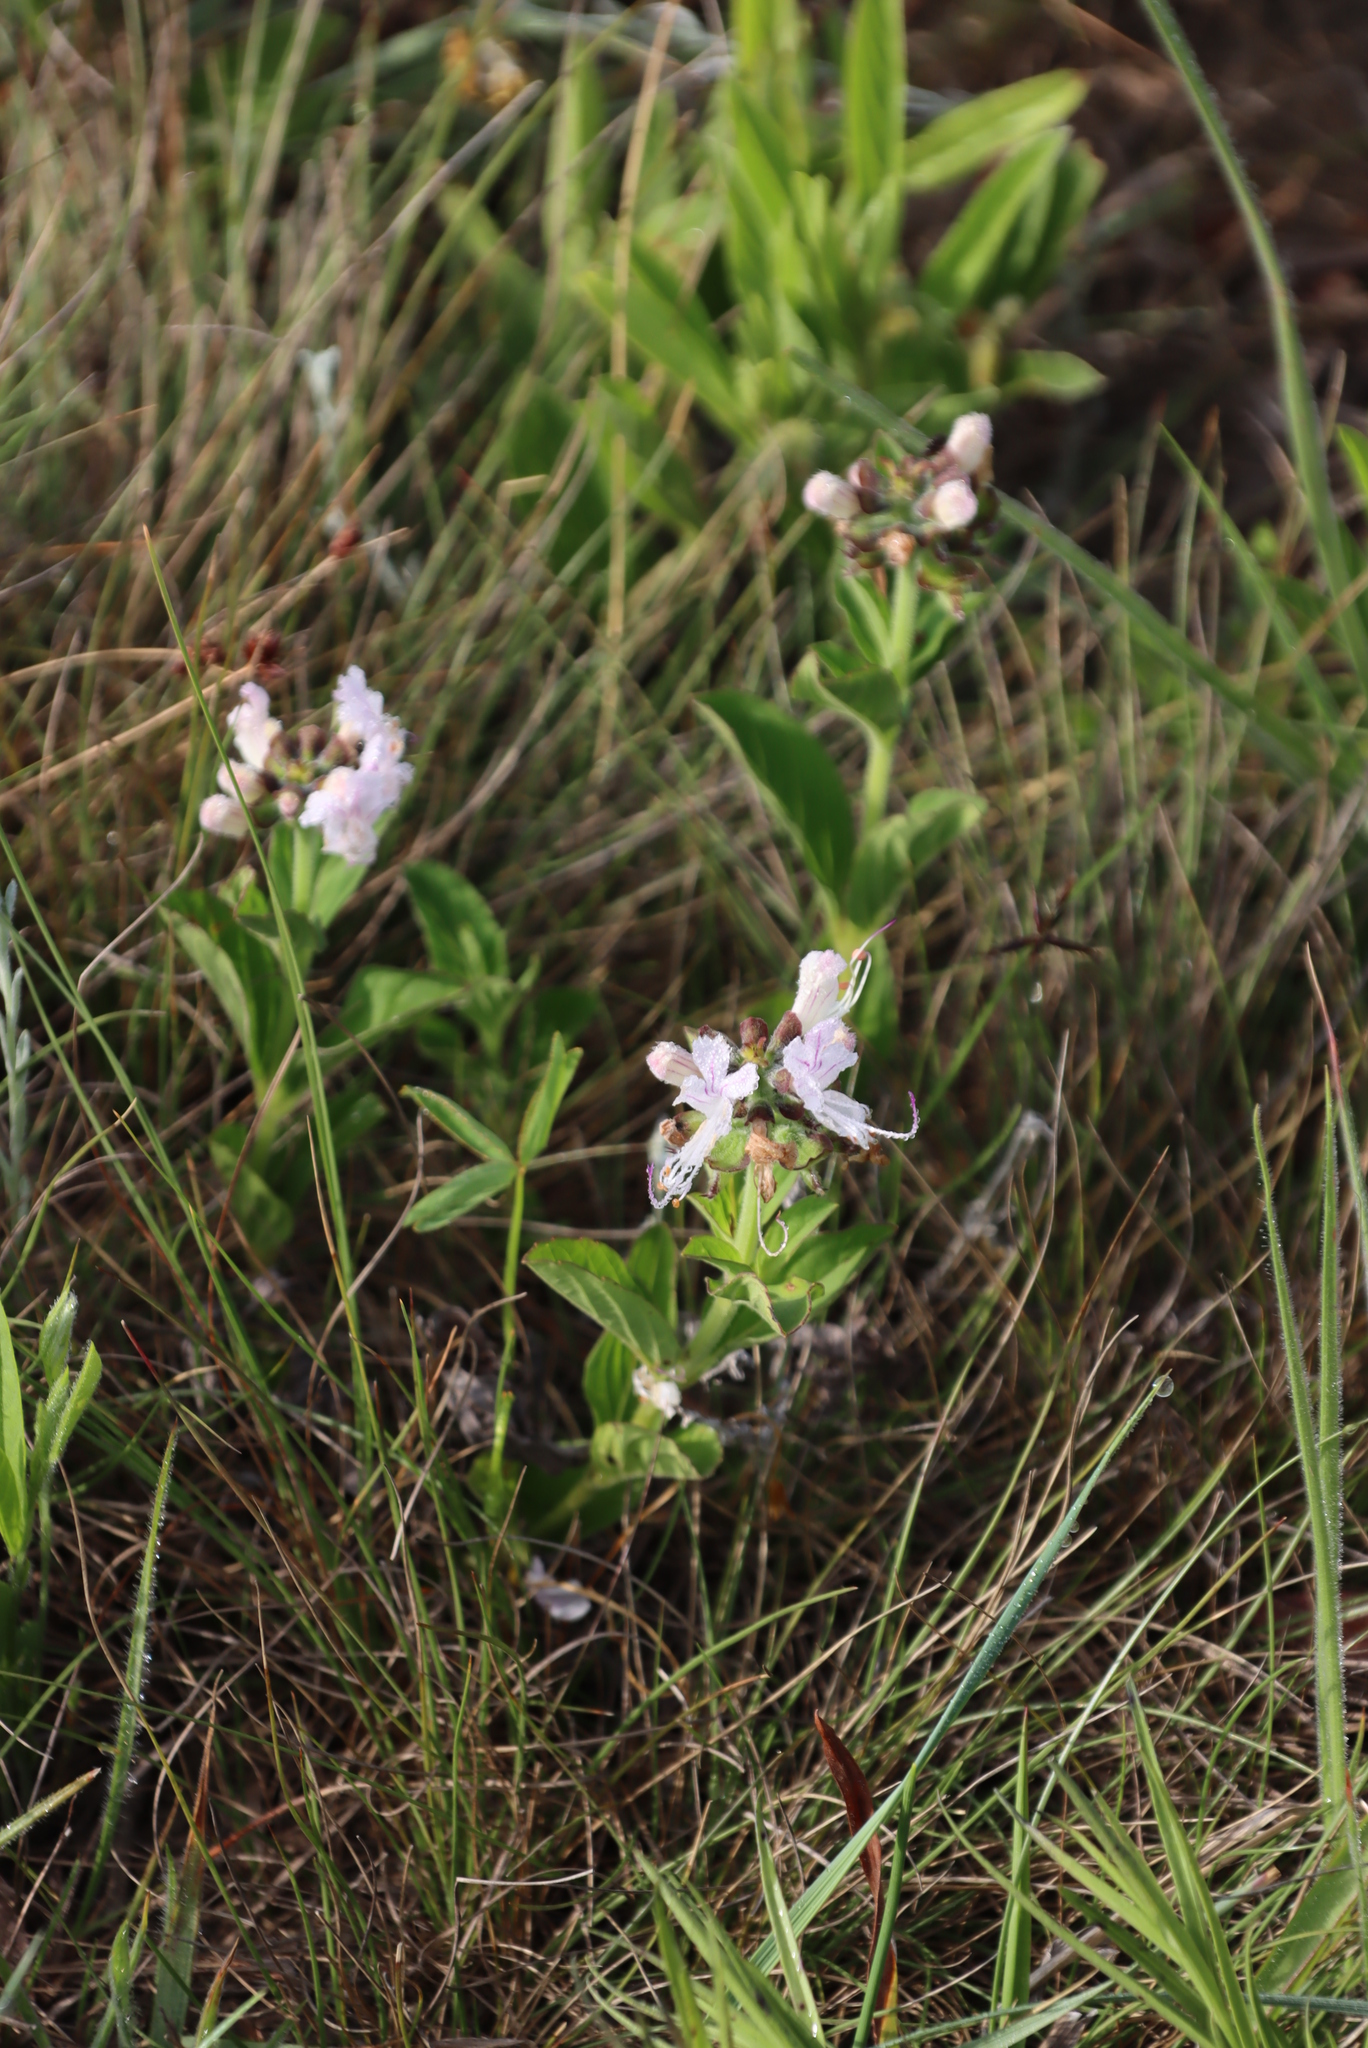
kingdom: Plantae
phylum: Tracheophyta
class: Magnoliopsida
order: Lamiales
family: Lamiaceae
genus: Ocimum
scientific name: Ocimum obovatum
